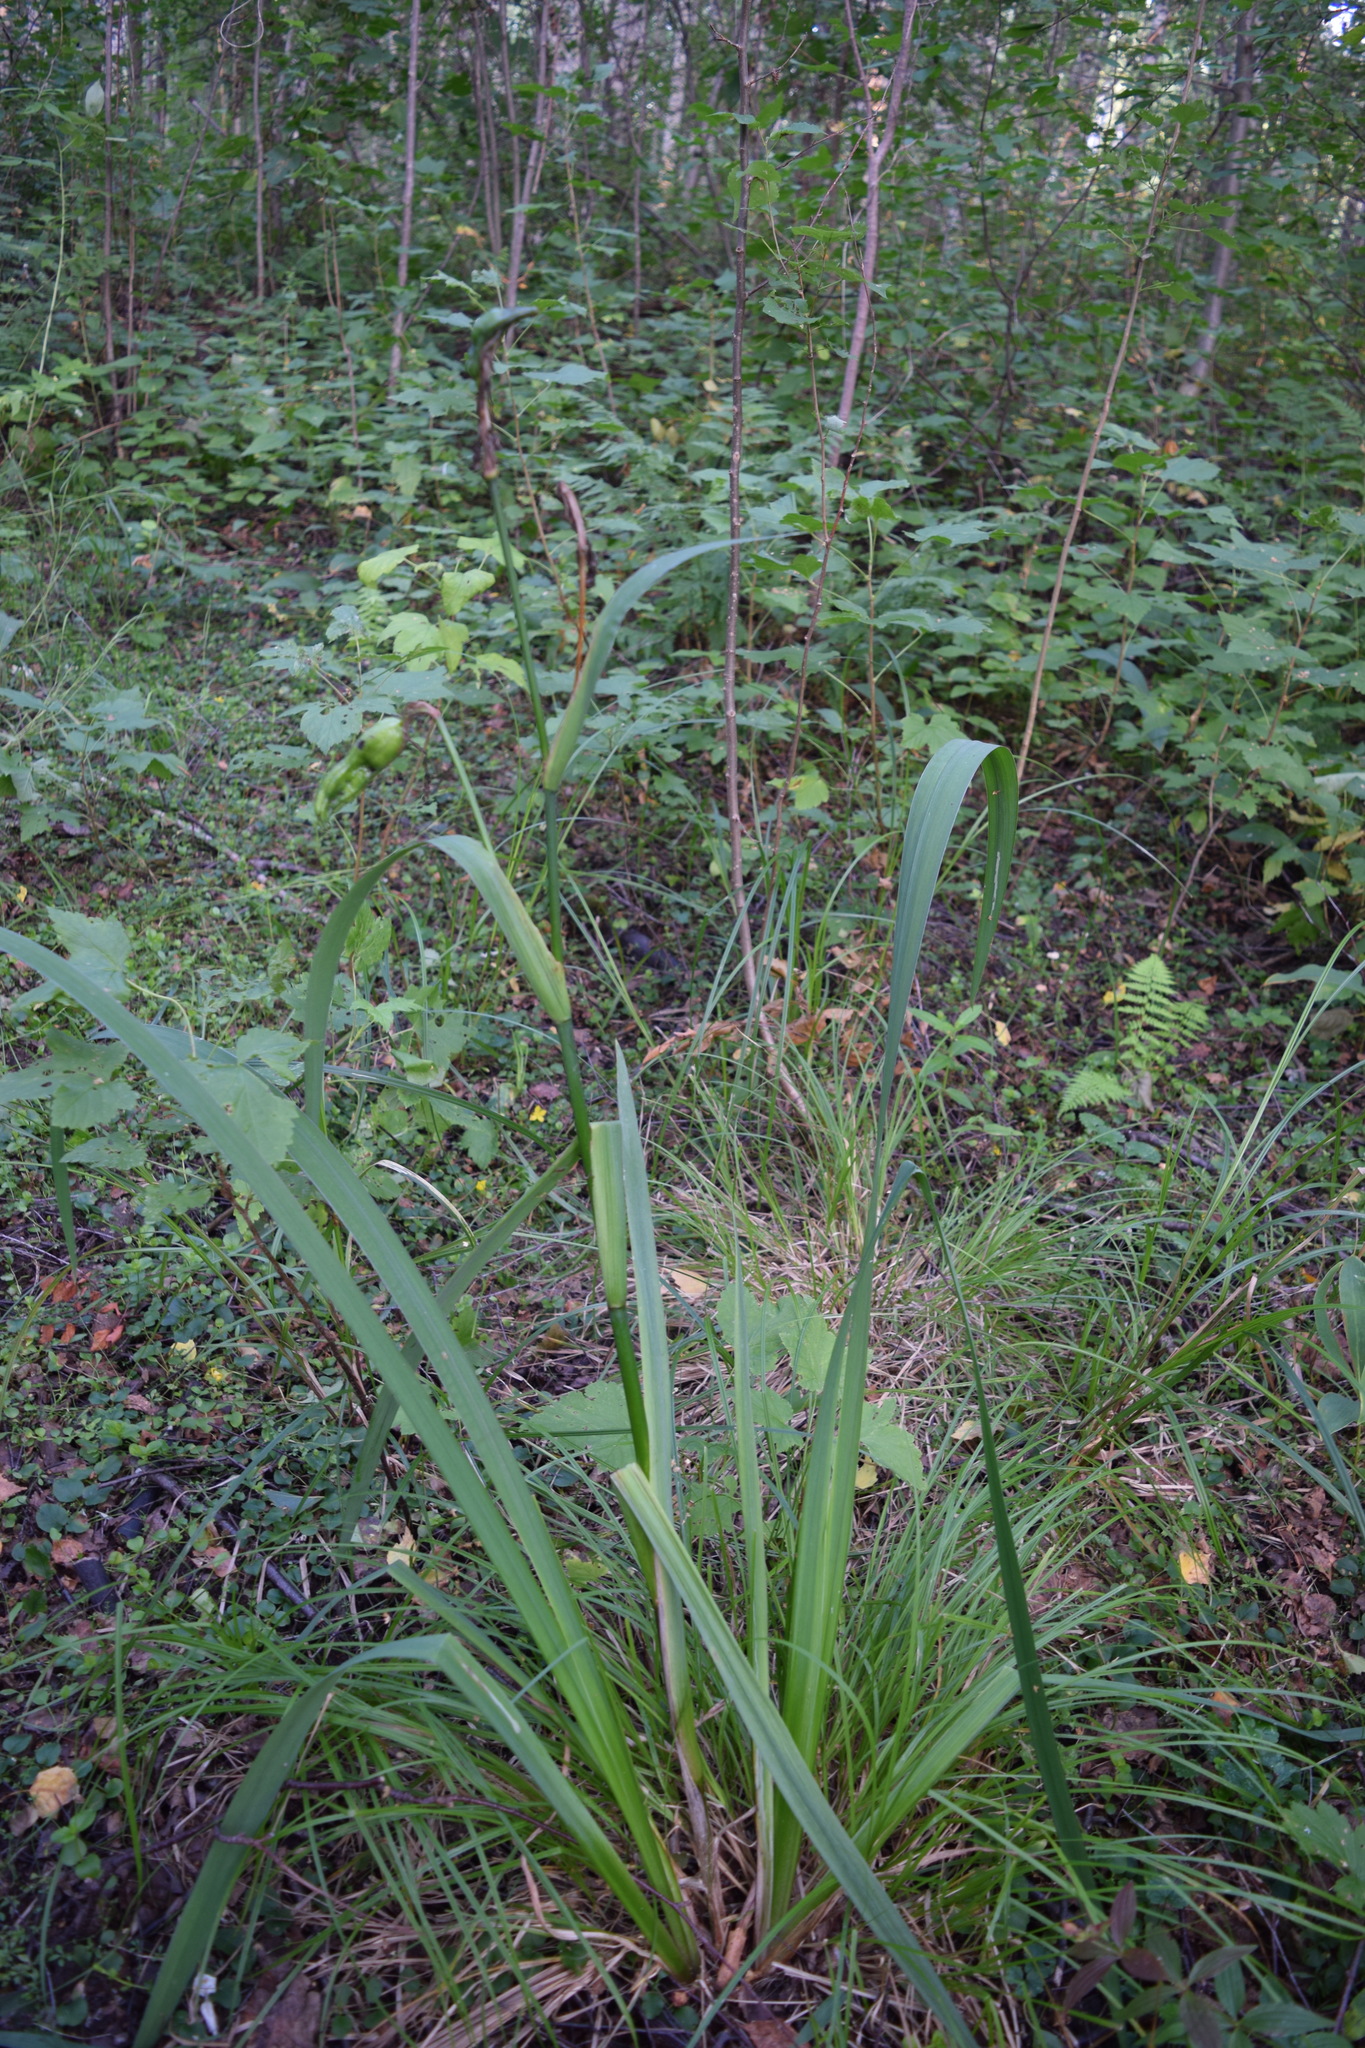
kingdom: Plantae
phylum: Tracheophyta
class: Liliopsida
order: Asparagales
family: Iridaceae
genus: Iris
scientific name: Iris pseudacorus
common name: Yellow flag
